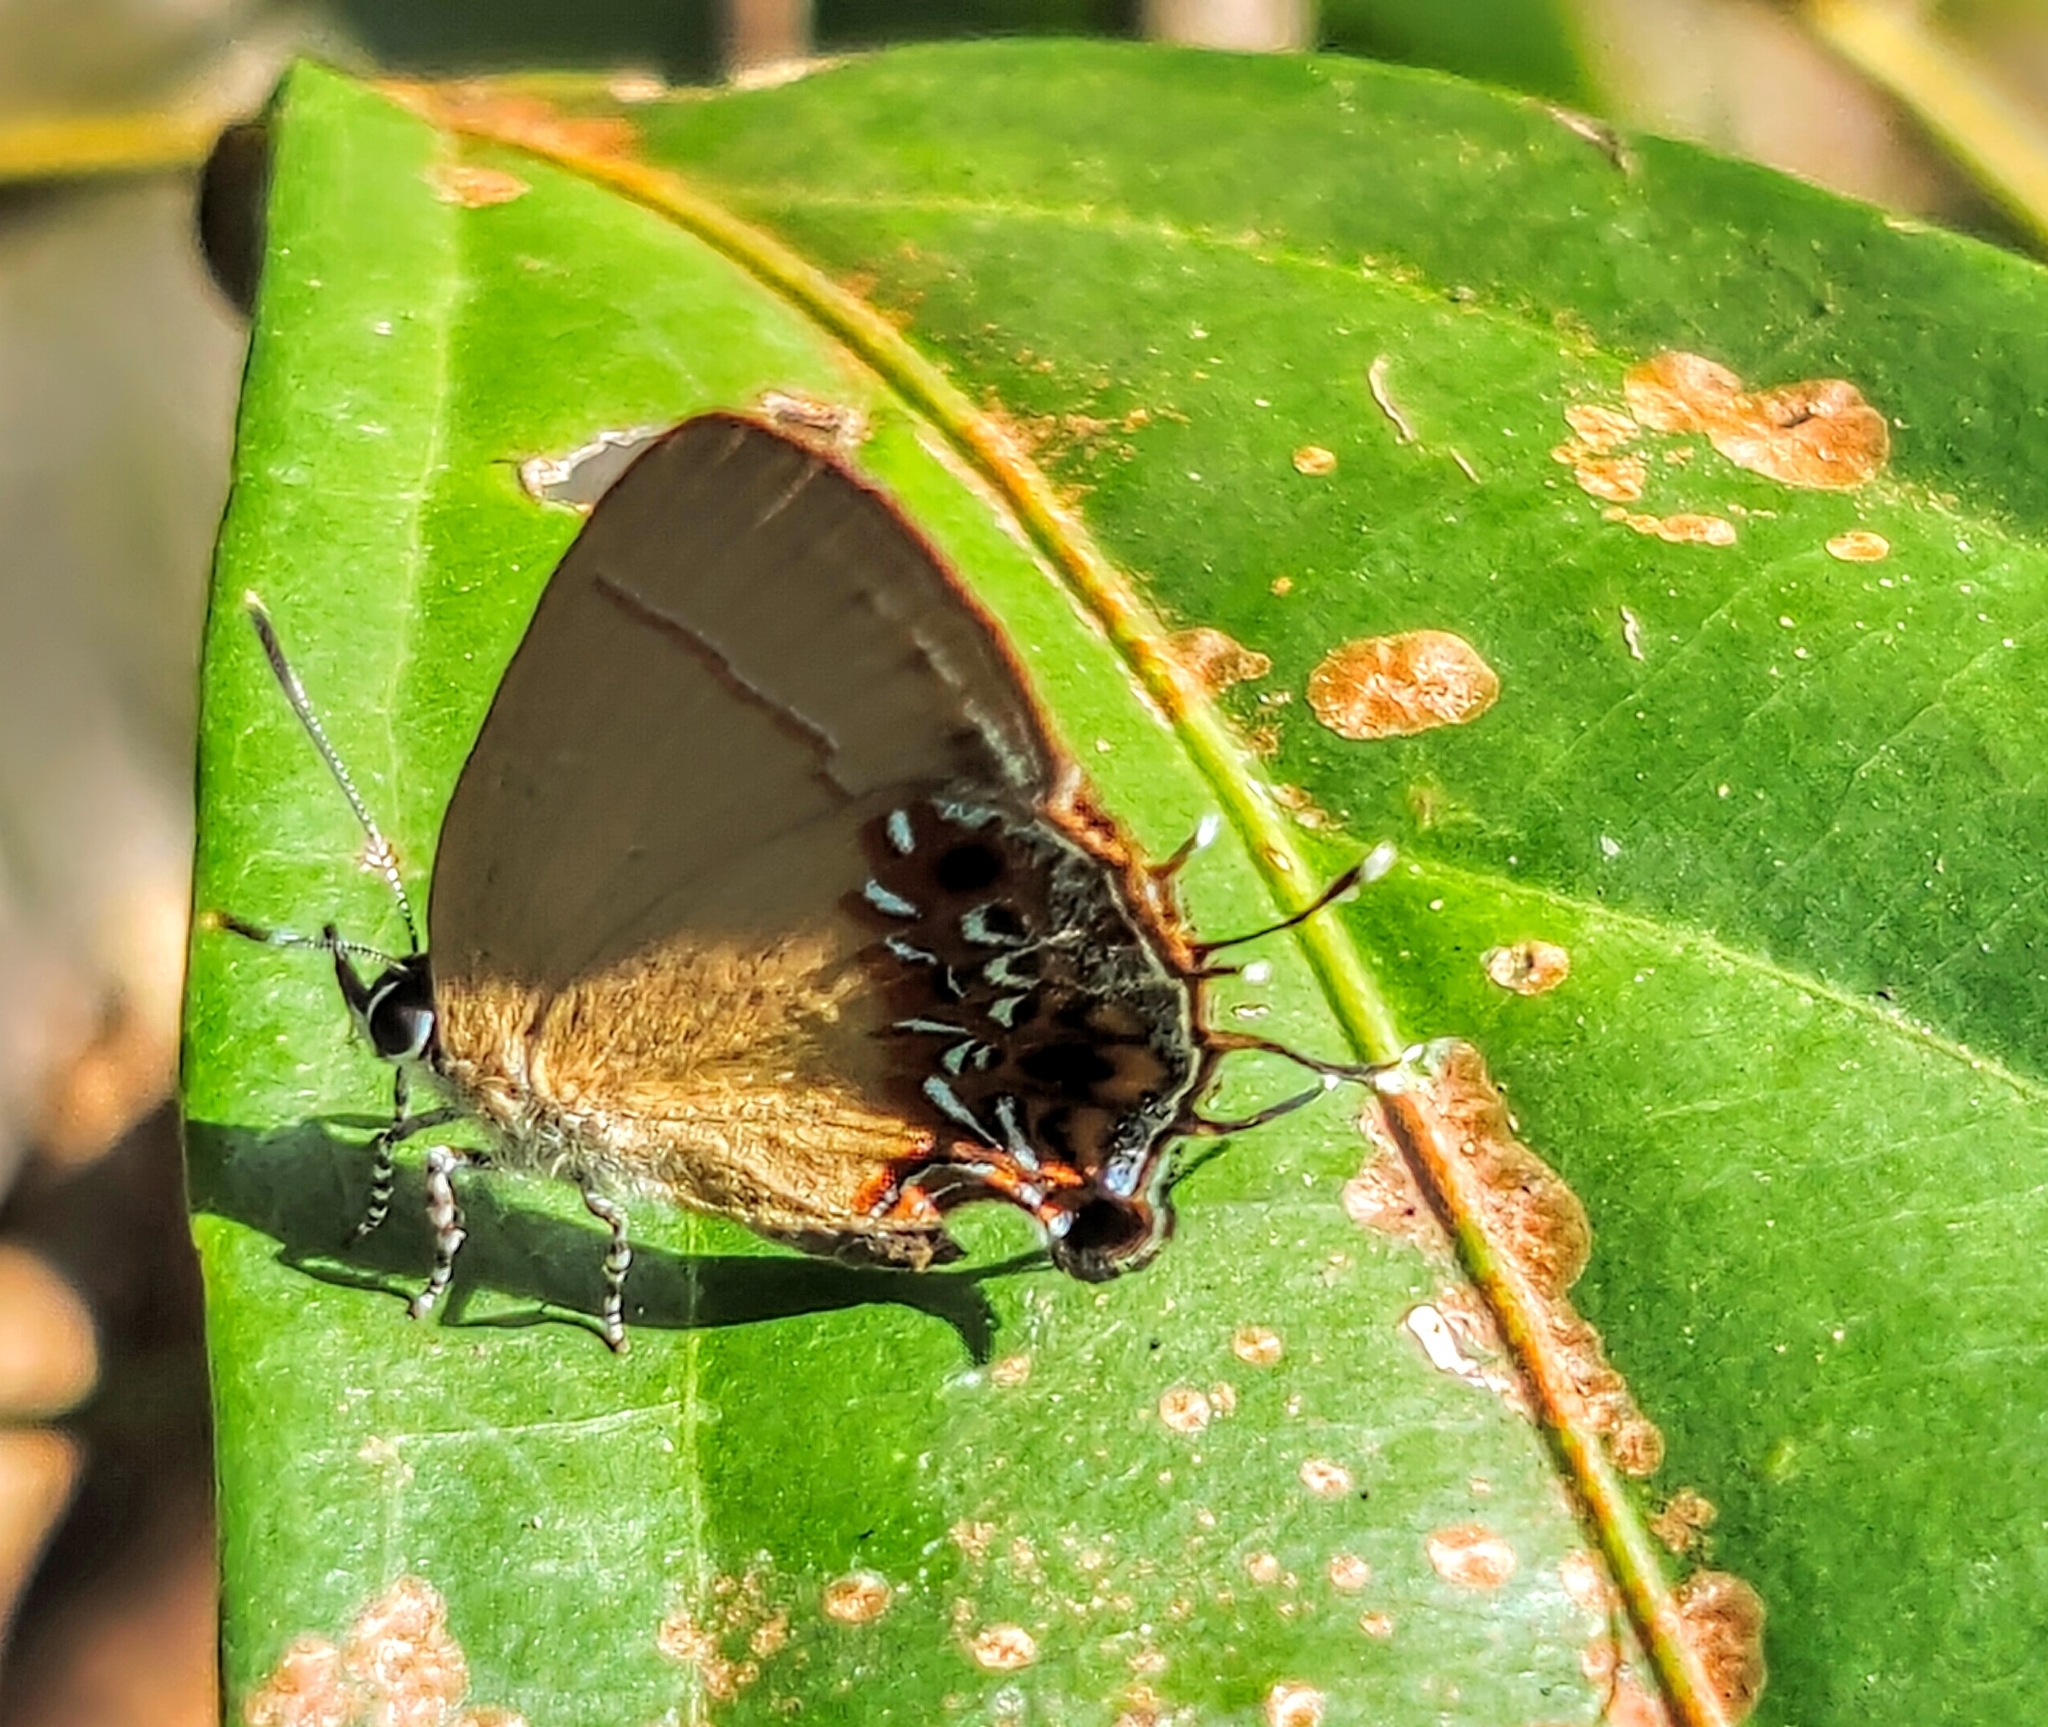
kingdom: Animalia
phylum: Arthropoda
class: Insecta
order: Lepidoptera
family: Lycaenidae
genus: Semanga
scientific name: Semanga superba
